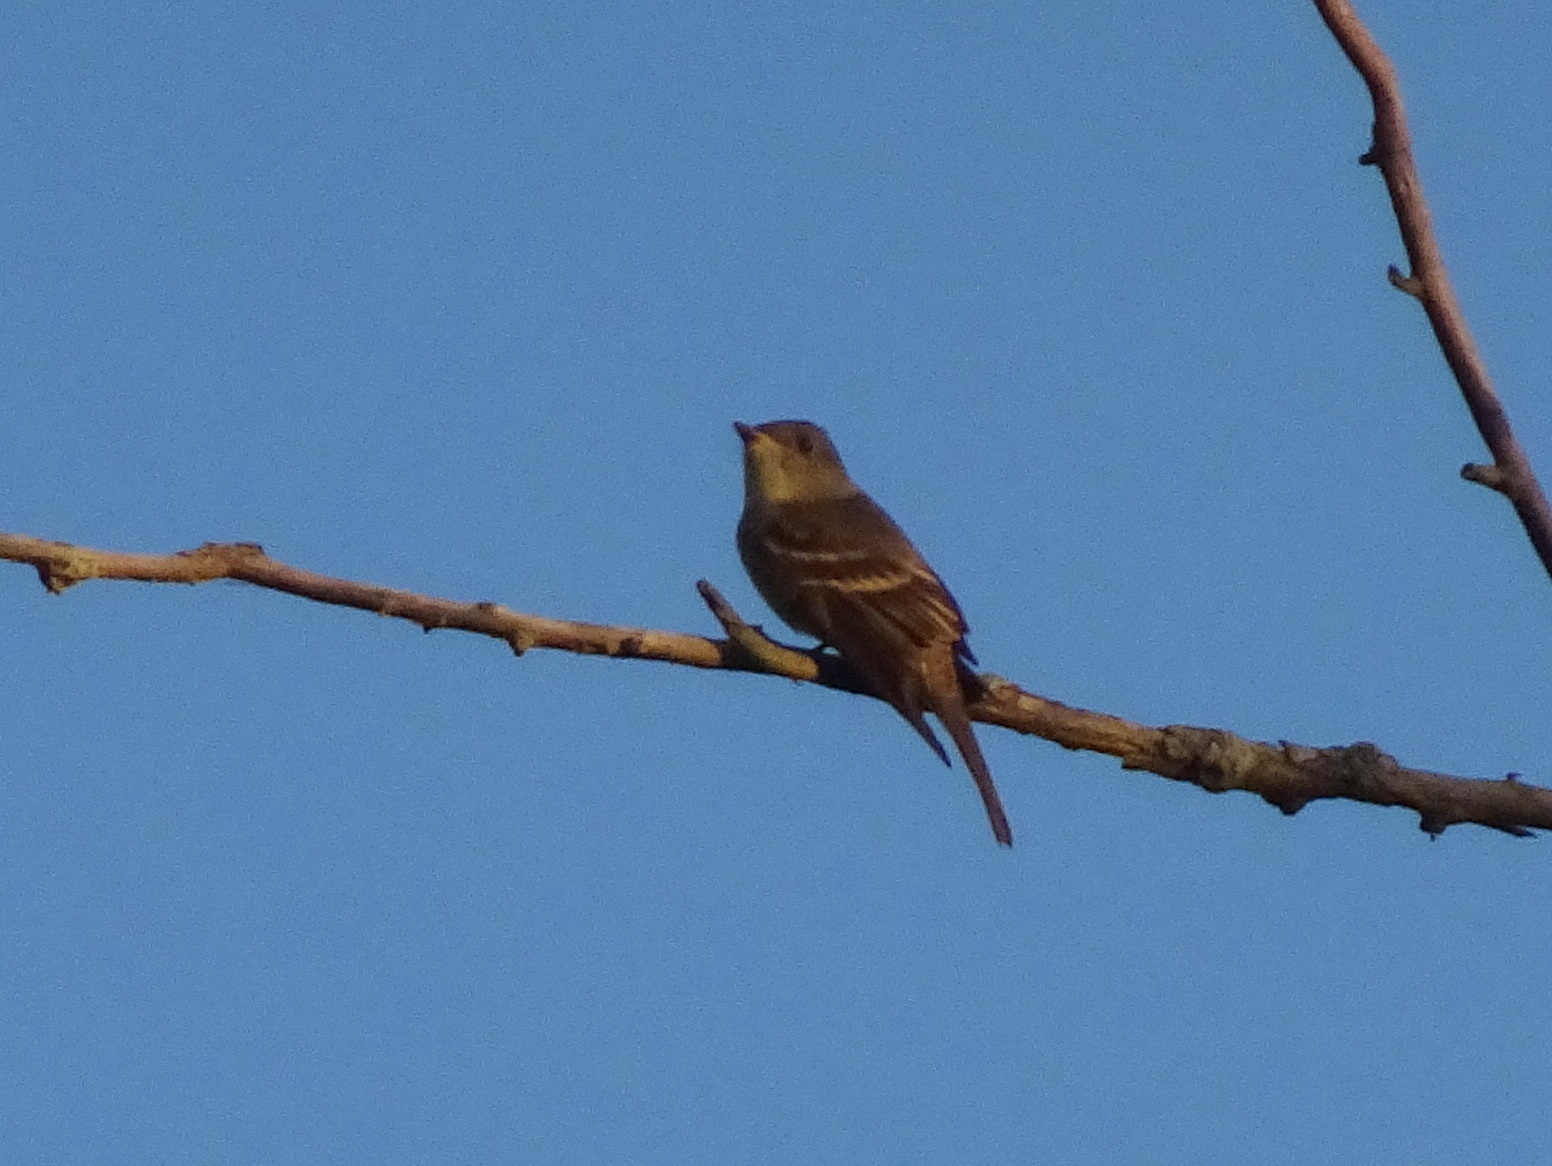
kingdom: Animalia
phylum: Chordata
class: Aves
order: Passeriformes
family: Tyrannidae
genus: Contopus
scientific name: Contopus virens
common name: Eastern wood-pewee
